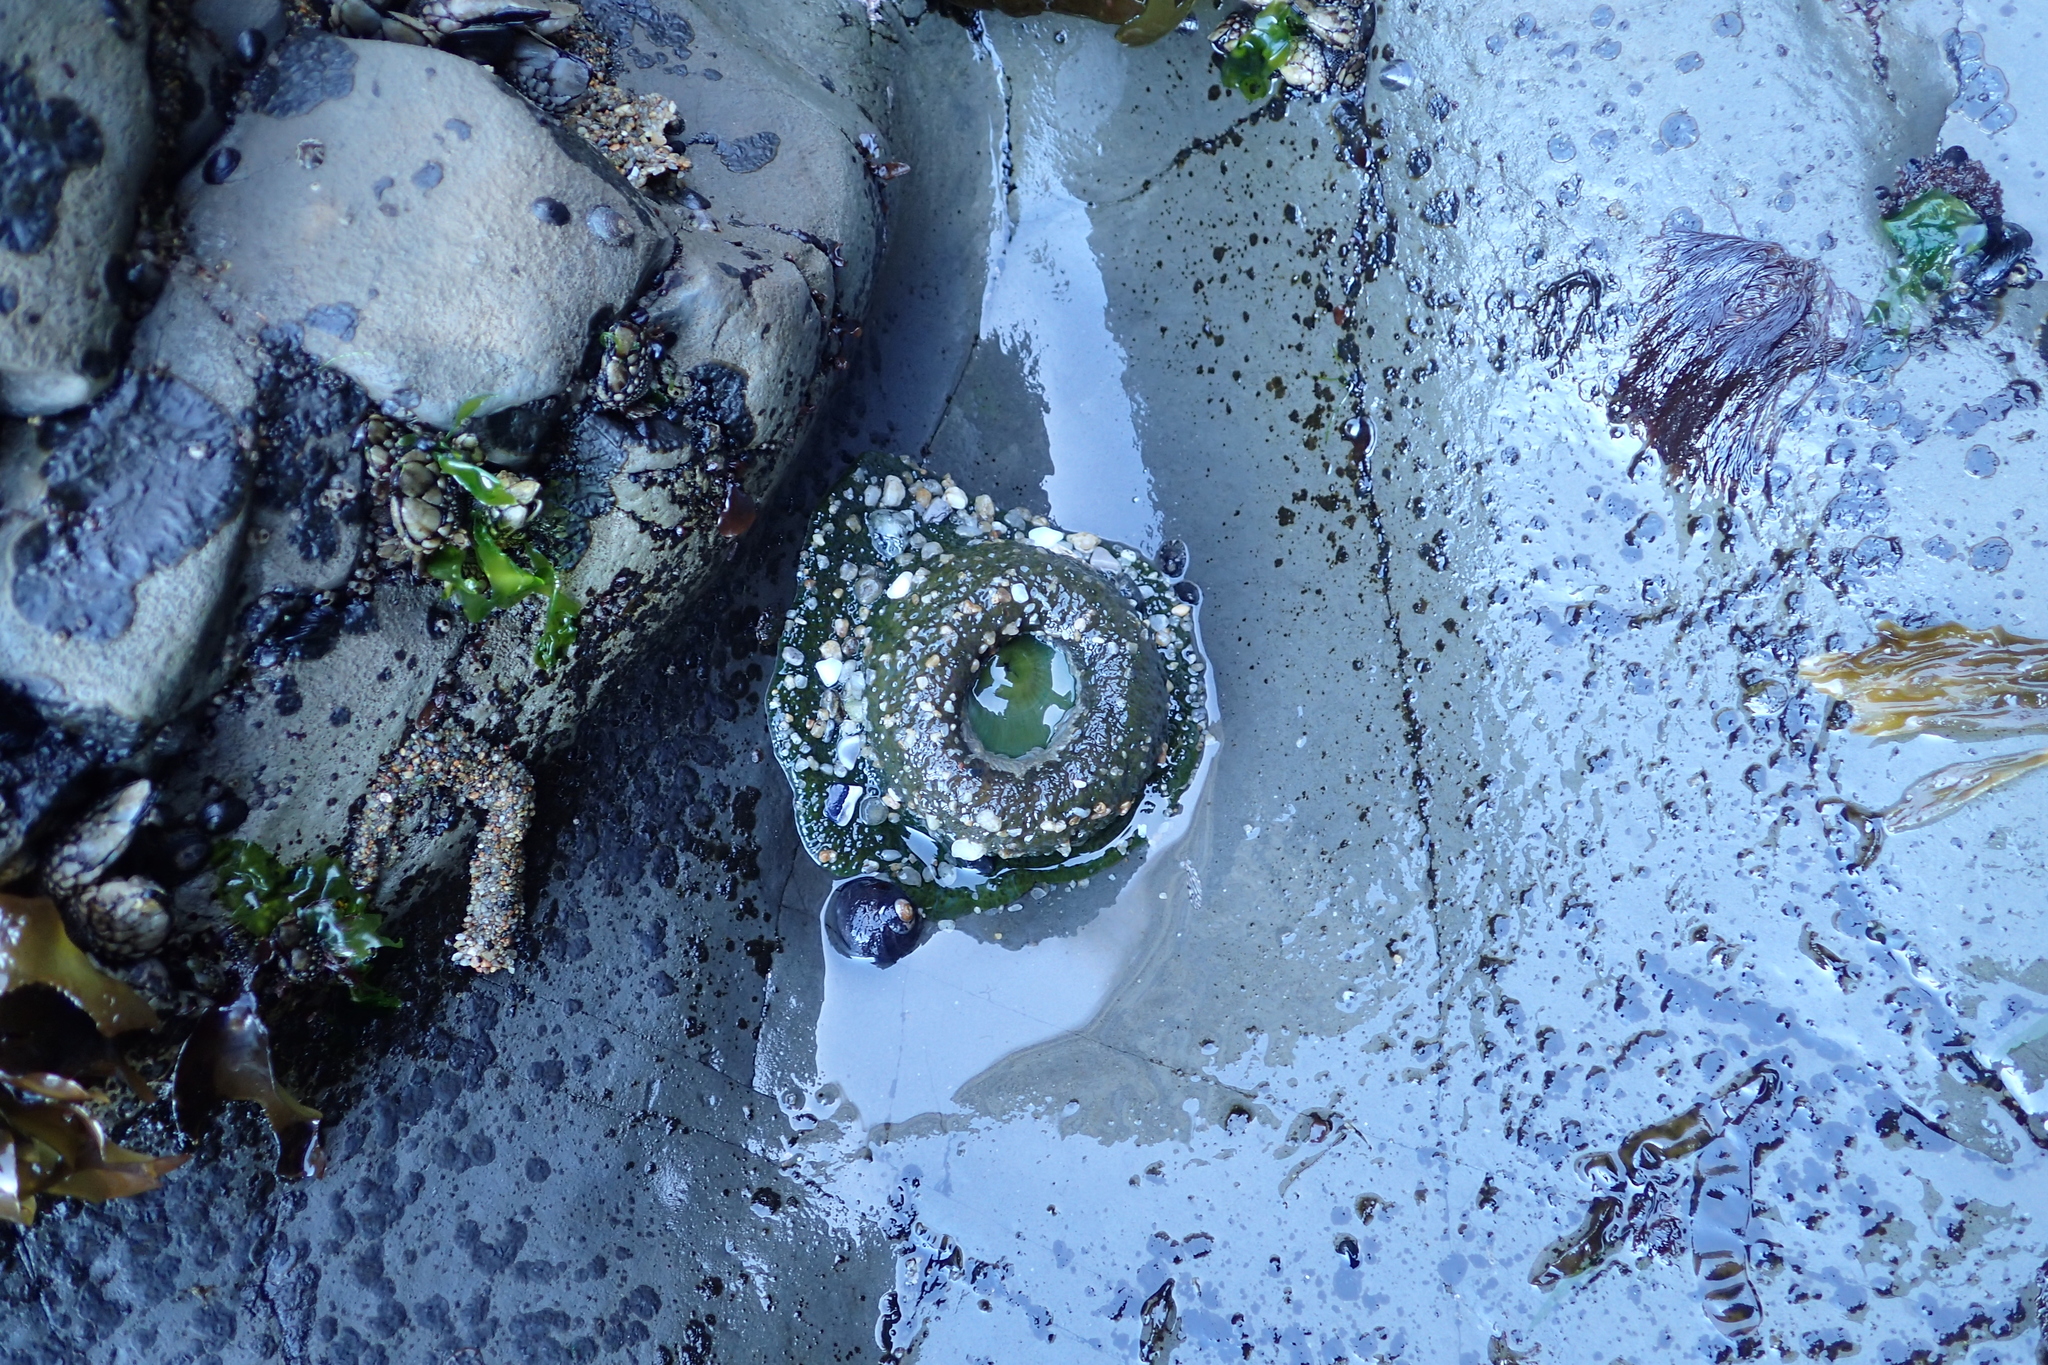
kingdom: Animalia
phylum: Cnidaria
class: Anthozoa
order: Actiniaria
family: Actiniidae
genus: Anthopleura
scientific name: Anthopleura xanthogrammica
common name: Giant green anemone
